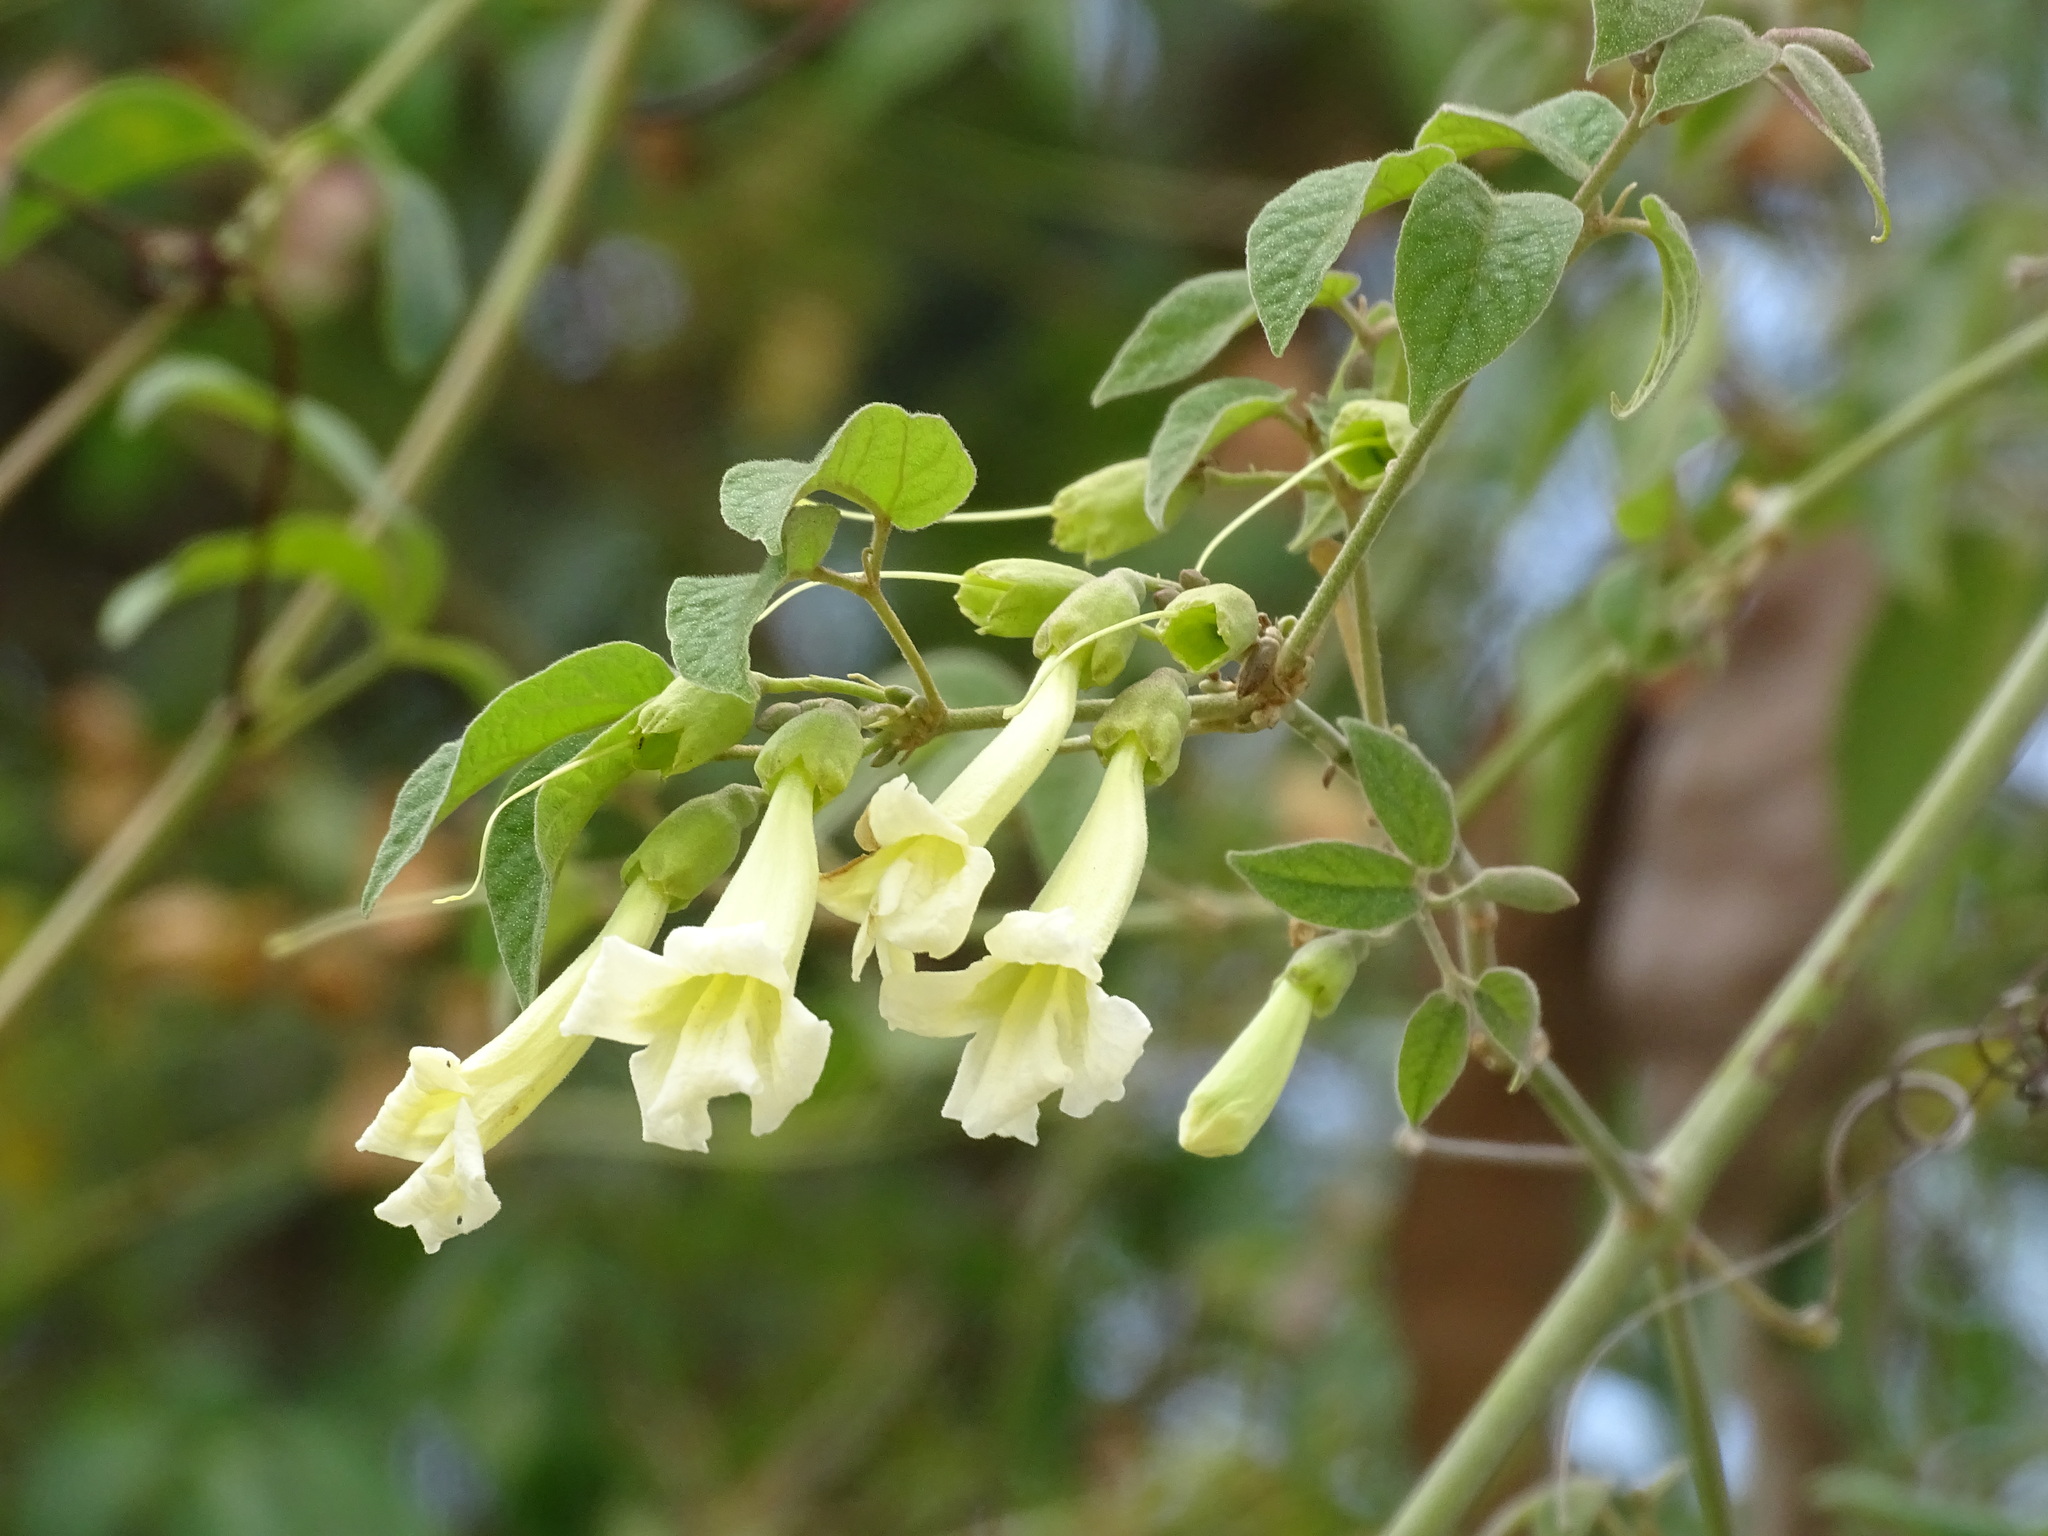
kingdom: Plantae
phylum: Tracheophyta
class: Magnoliopsida
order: Lamiales
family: Bignoniaceae
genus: Stizophyllum
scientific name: Stizophyllum riparium
